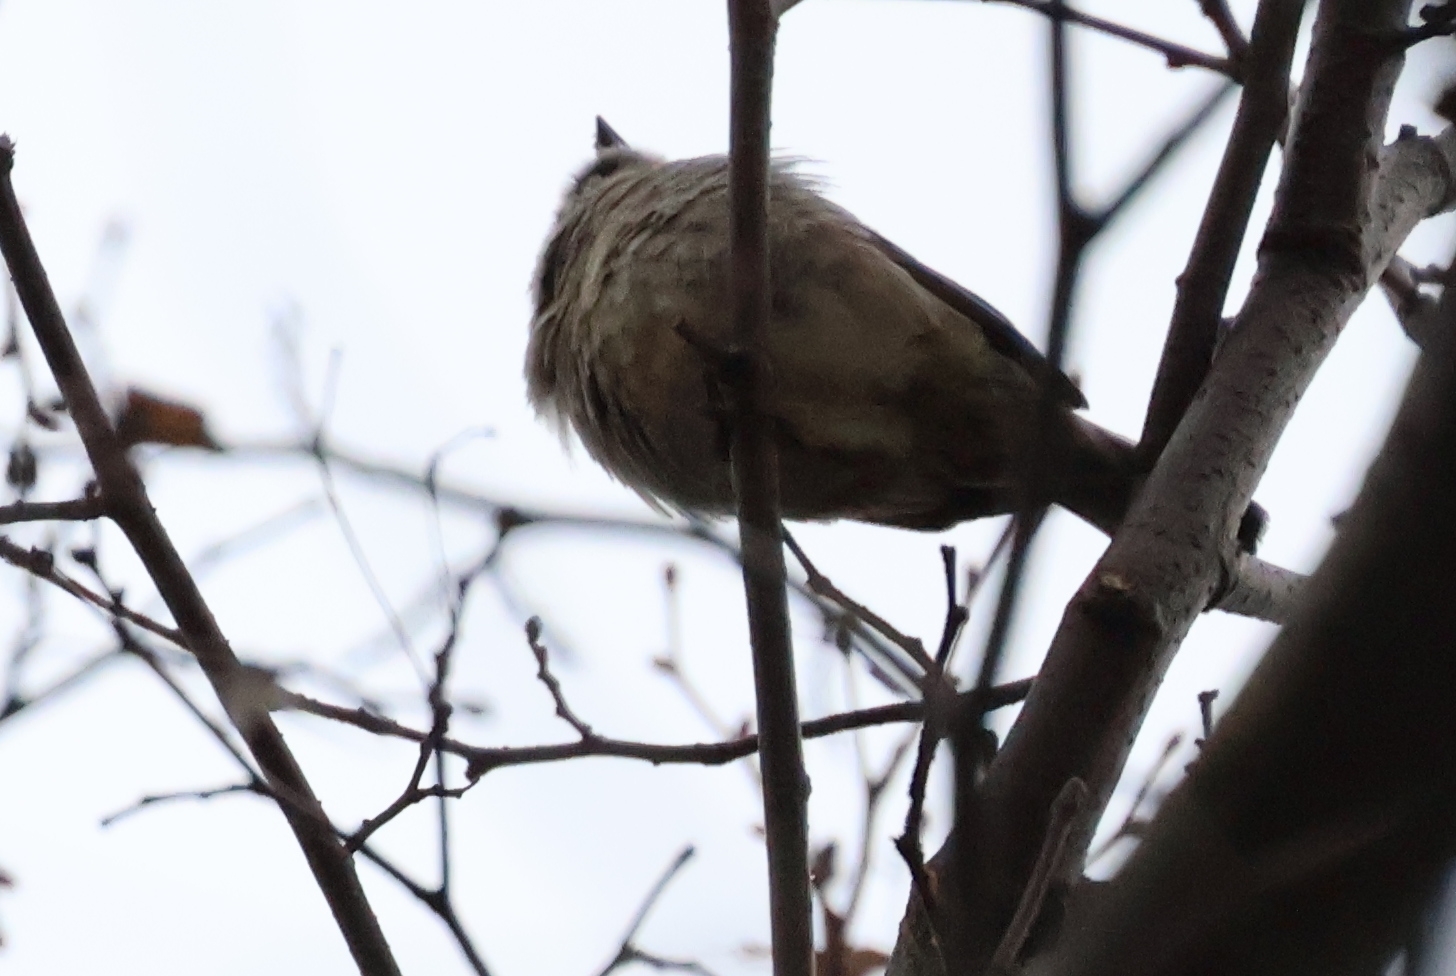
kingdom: Animalia
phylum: Chordata
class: Aves
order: Passeriformes
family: Passeridae
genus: Passer
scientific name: Passer domesticus
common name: House sparrow
